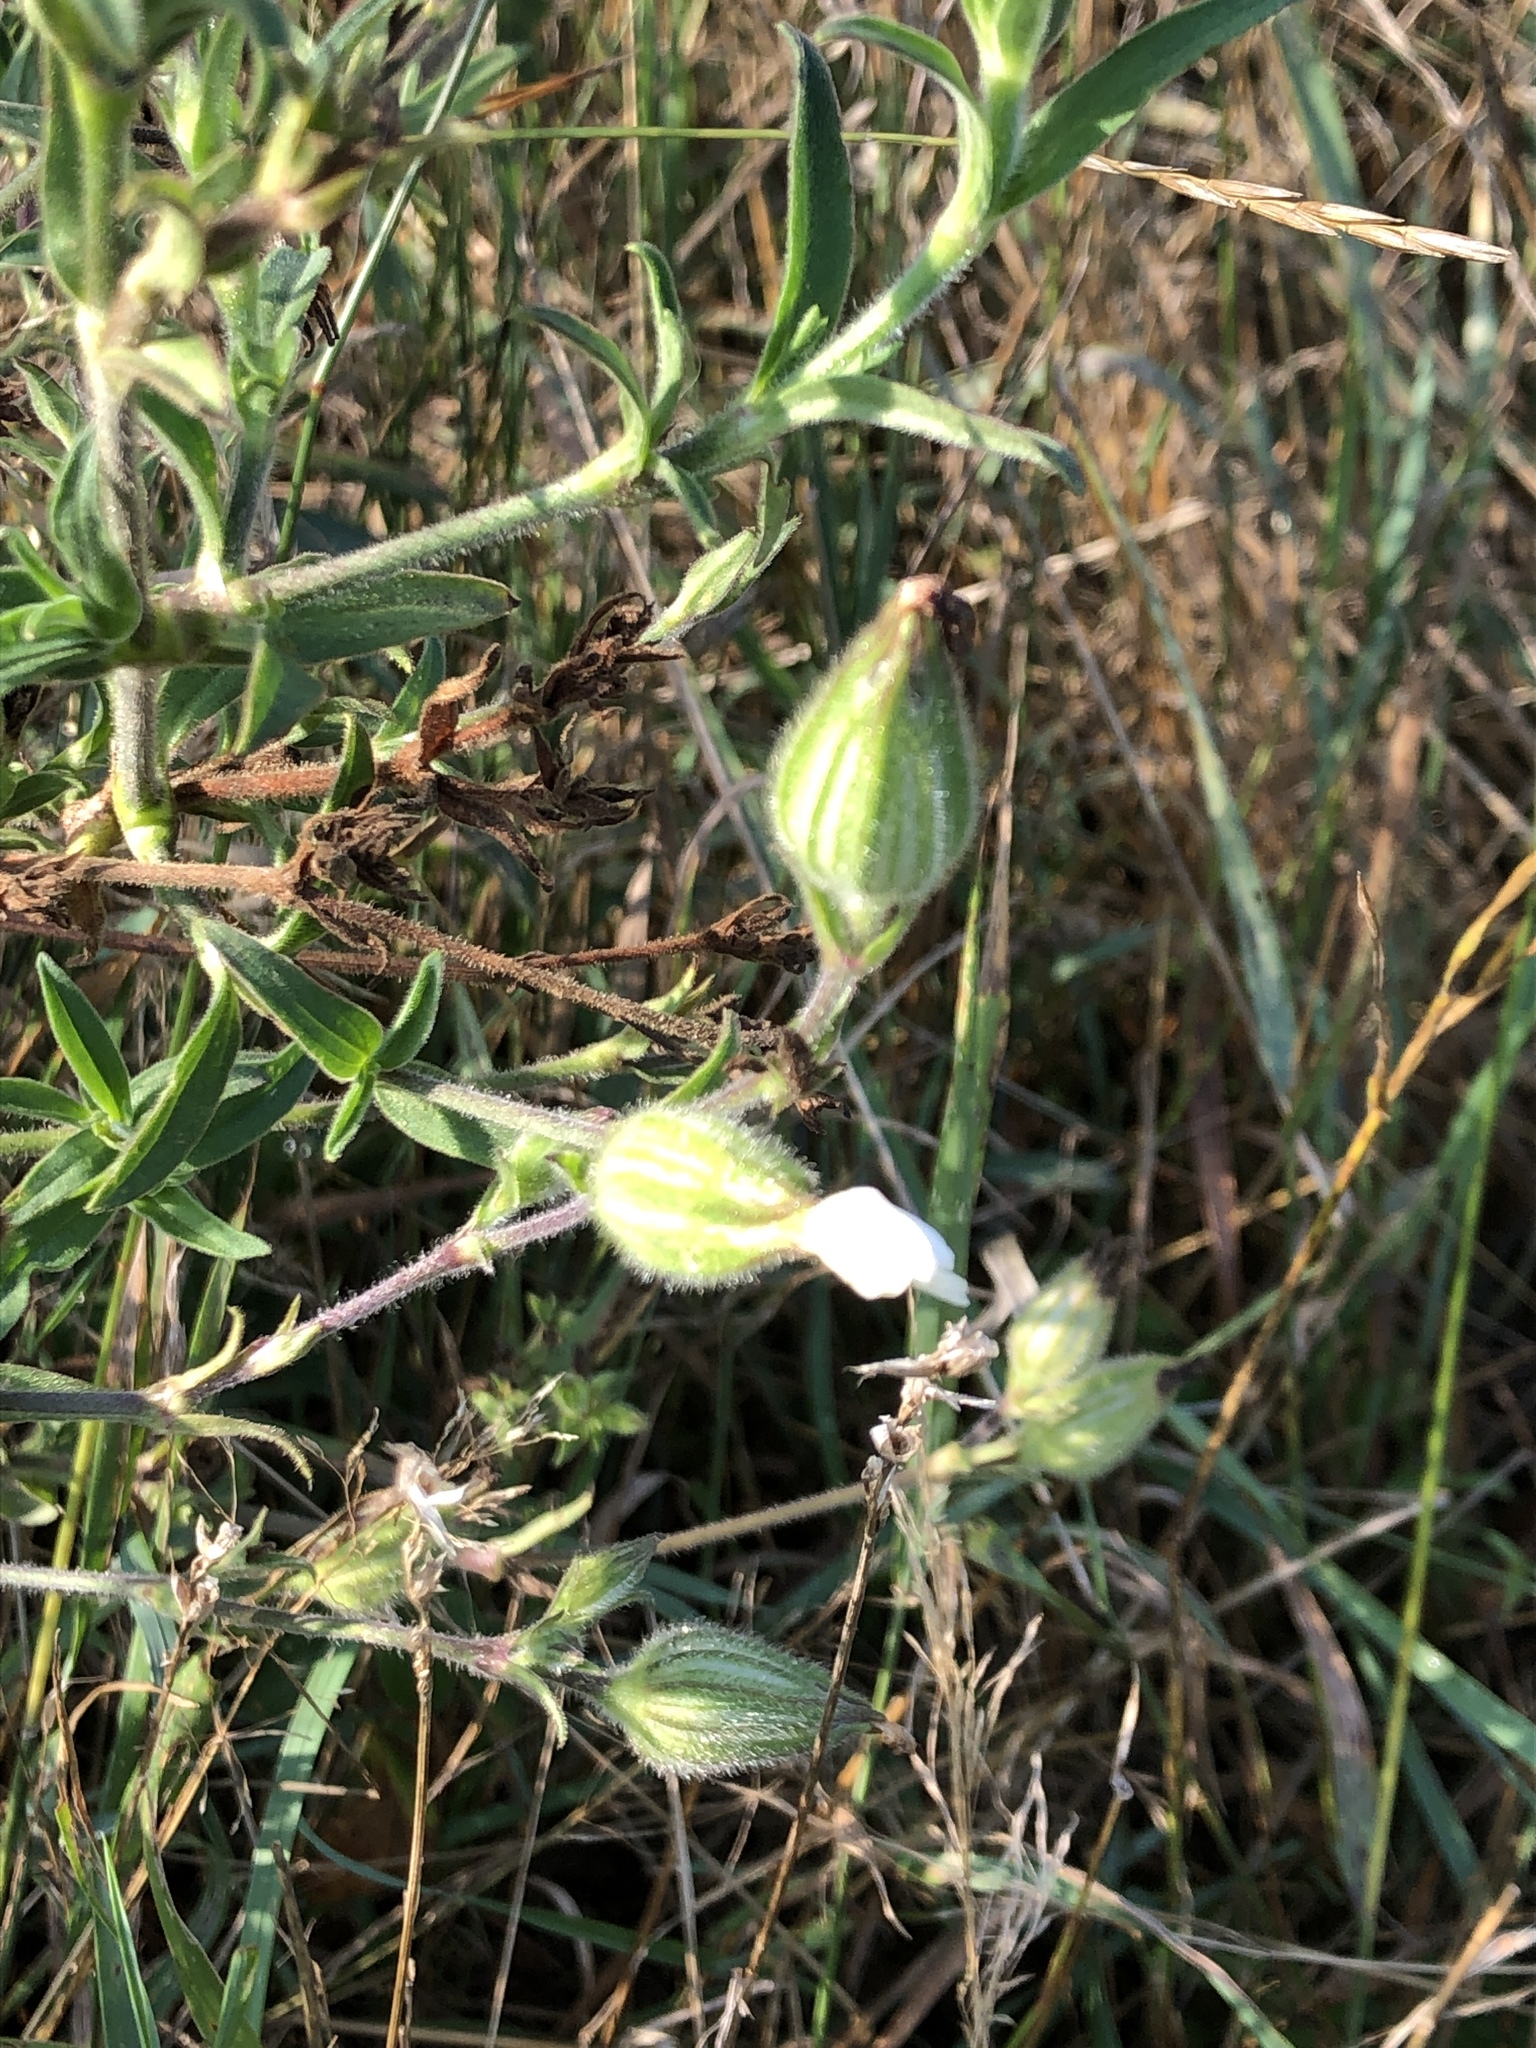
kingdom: Plantae
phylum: Tracheophyta
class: Magnoliopsida
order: Caryophyllales
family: Caryophyllaceae
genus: Silene
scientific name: Silene latifolia
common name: White campion
